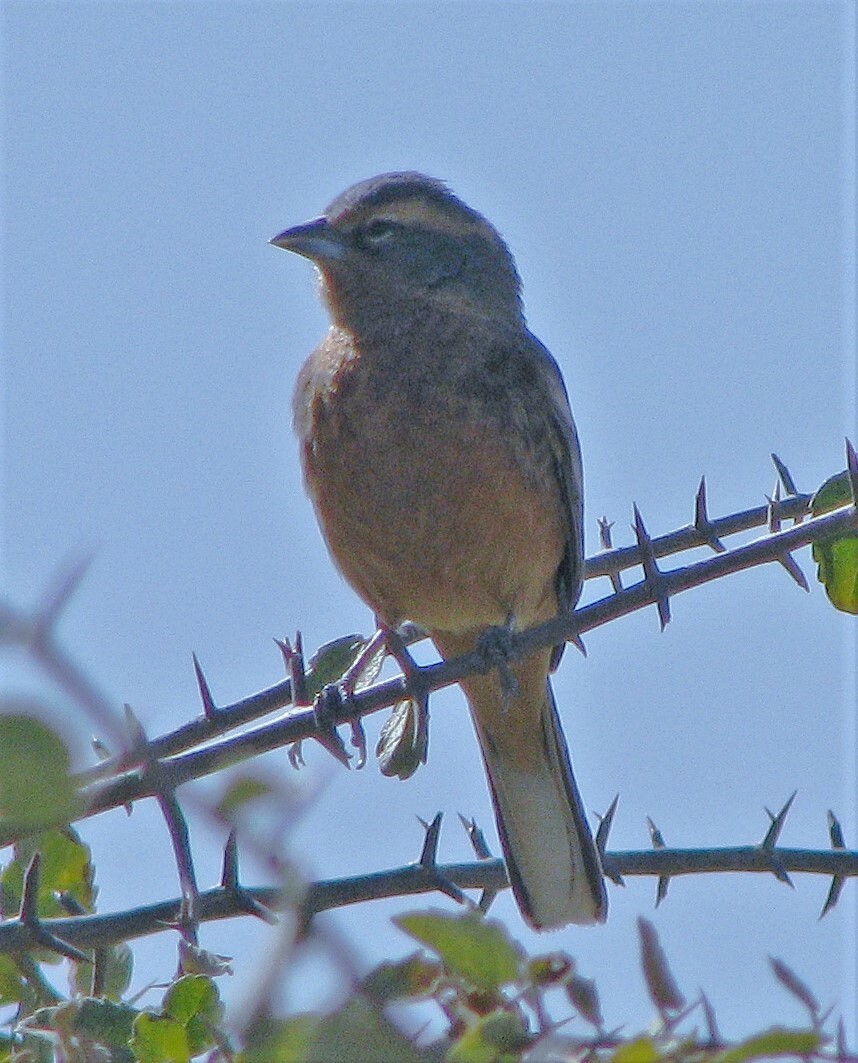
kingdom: Animalia
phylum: Chordata
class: Aves
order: Passeriformes
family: Thraupidae
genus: Poospiza
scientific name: Poospiza ornata
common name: Cinnamon warbling finch
